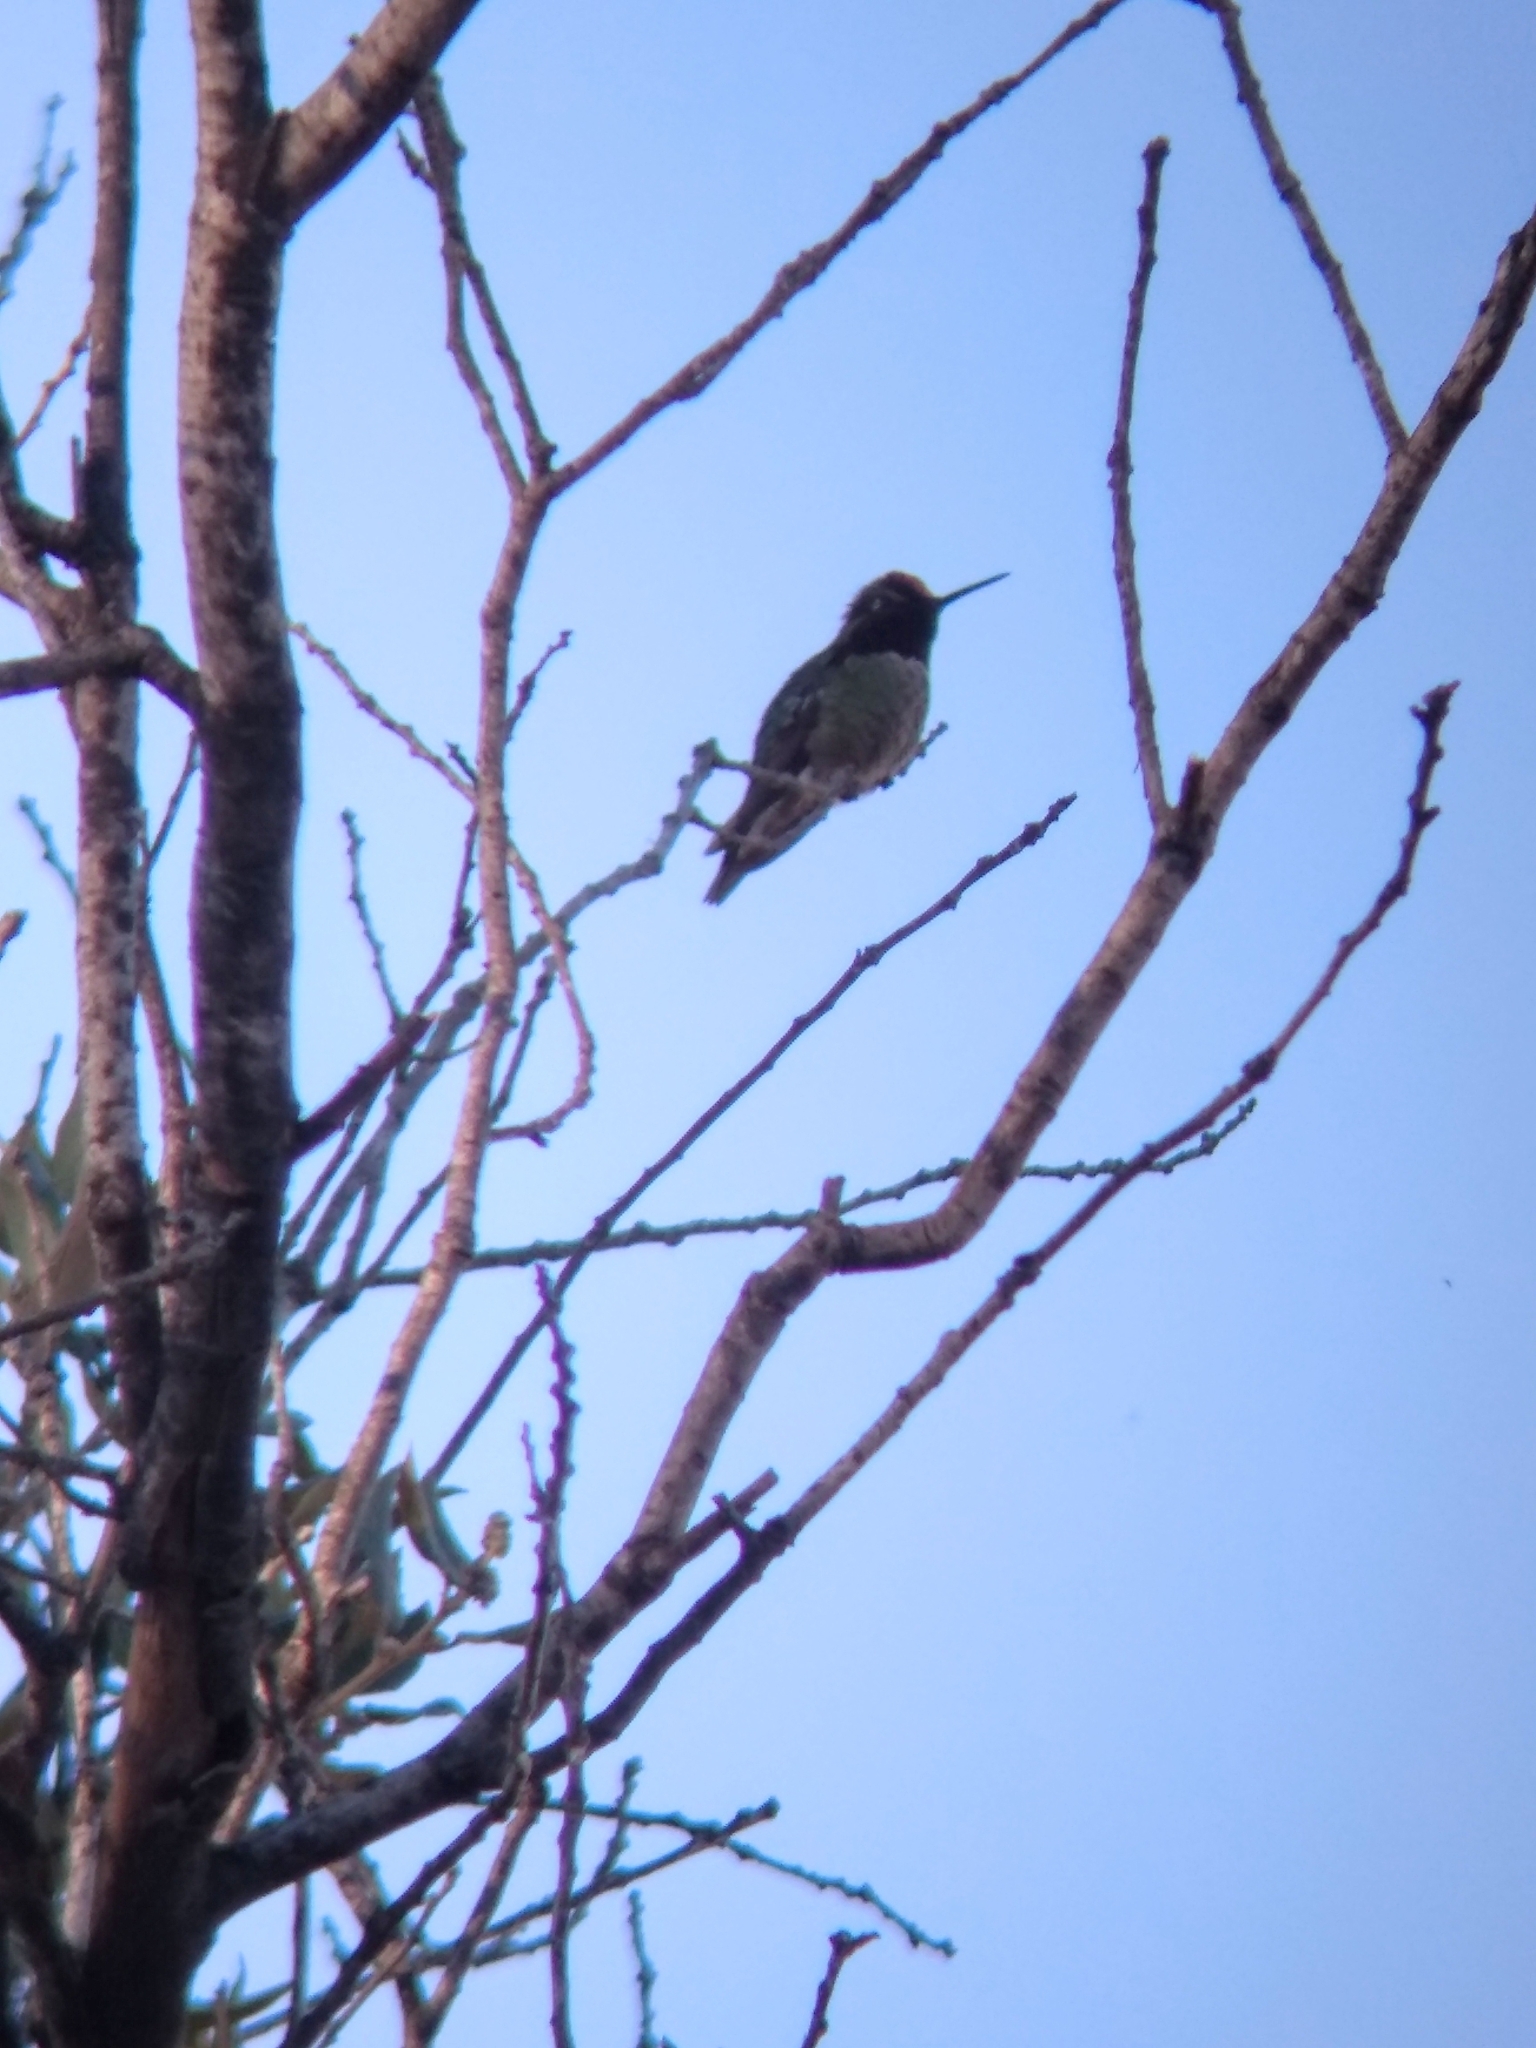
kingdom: Animalia
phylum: Chordata
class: Aves
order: Apodiformes
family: Trochilidae
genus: Calypte
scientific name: Calypte anna
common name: Anna's hummingbird
